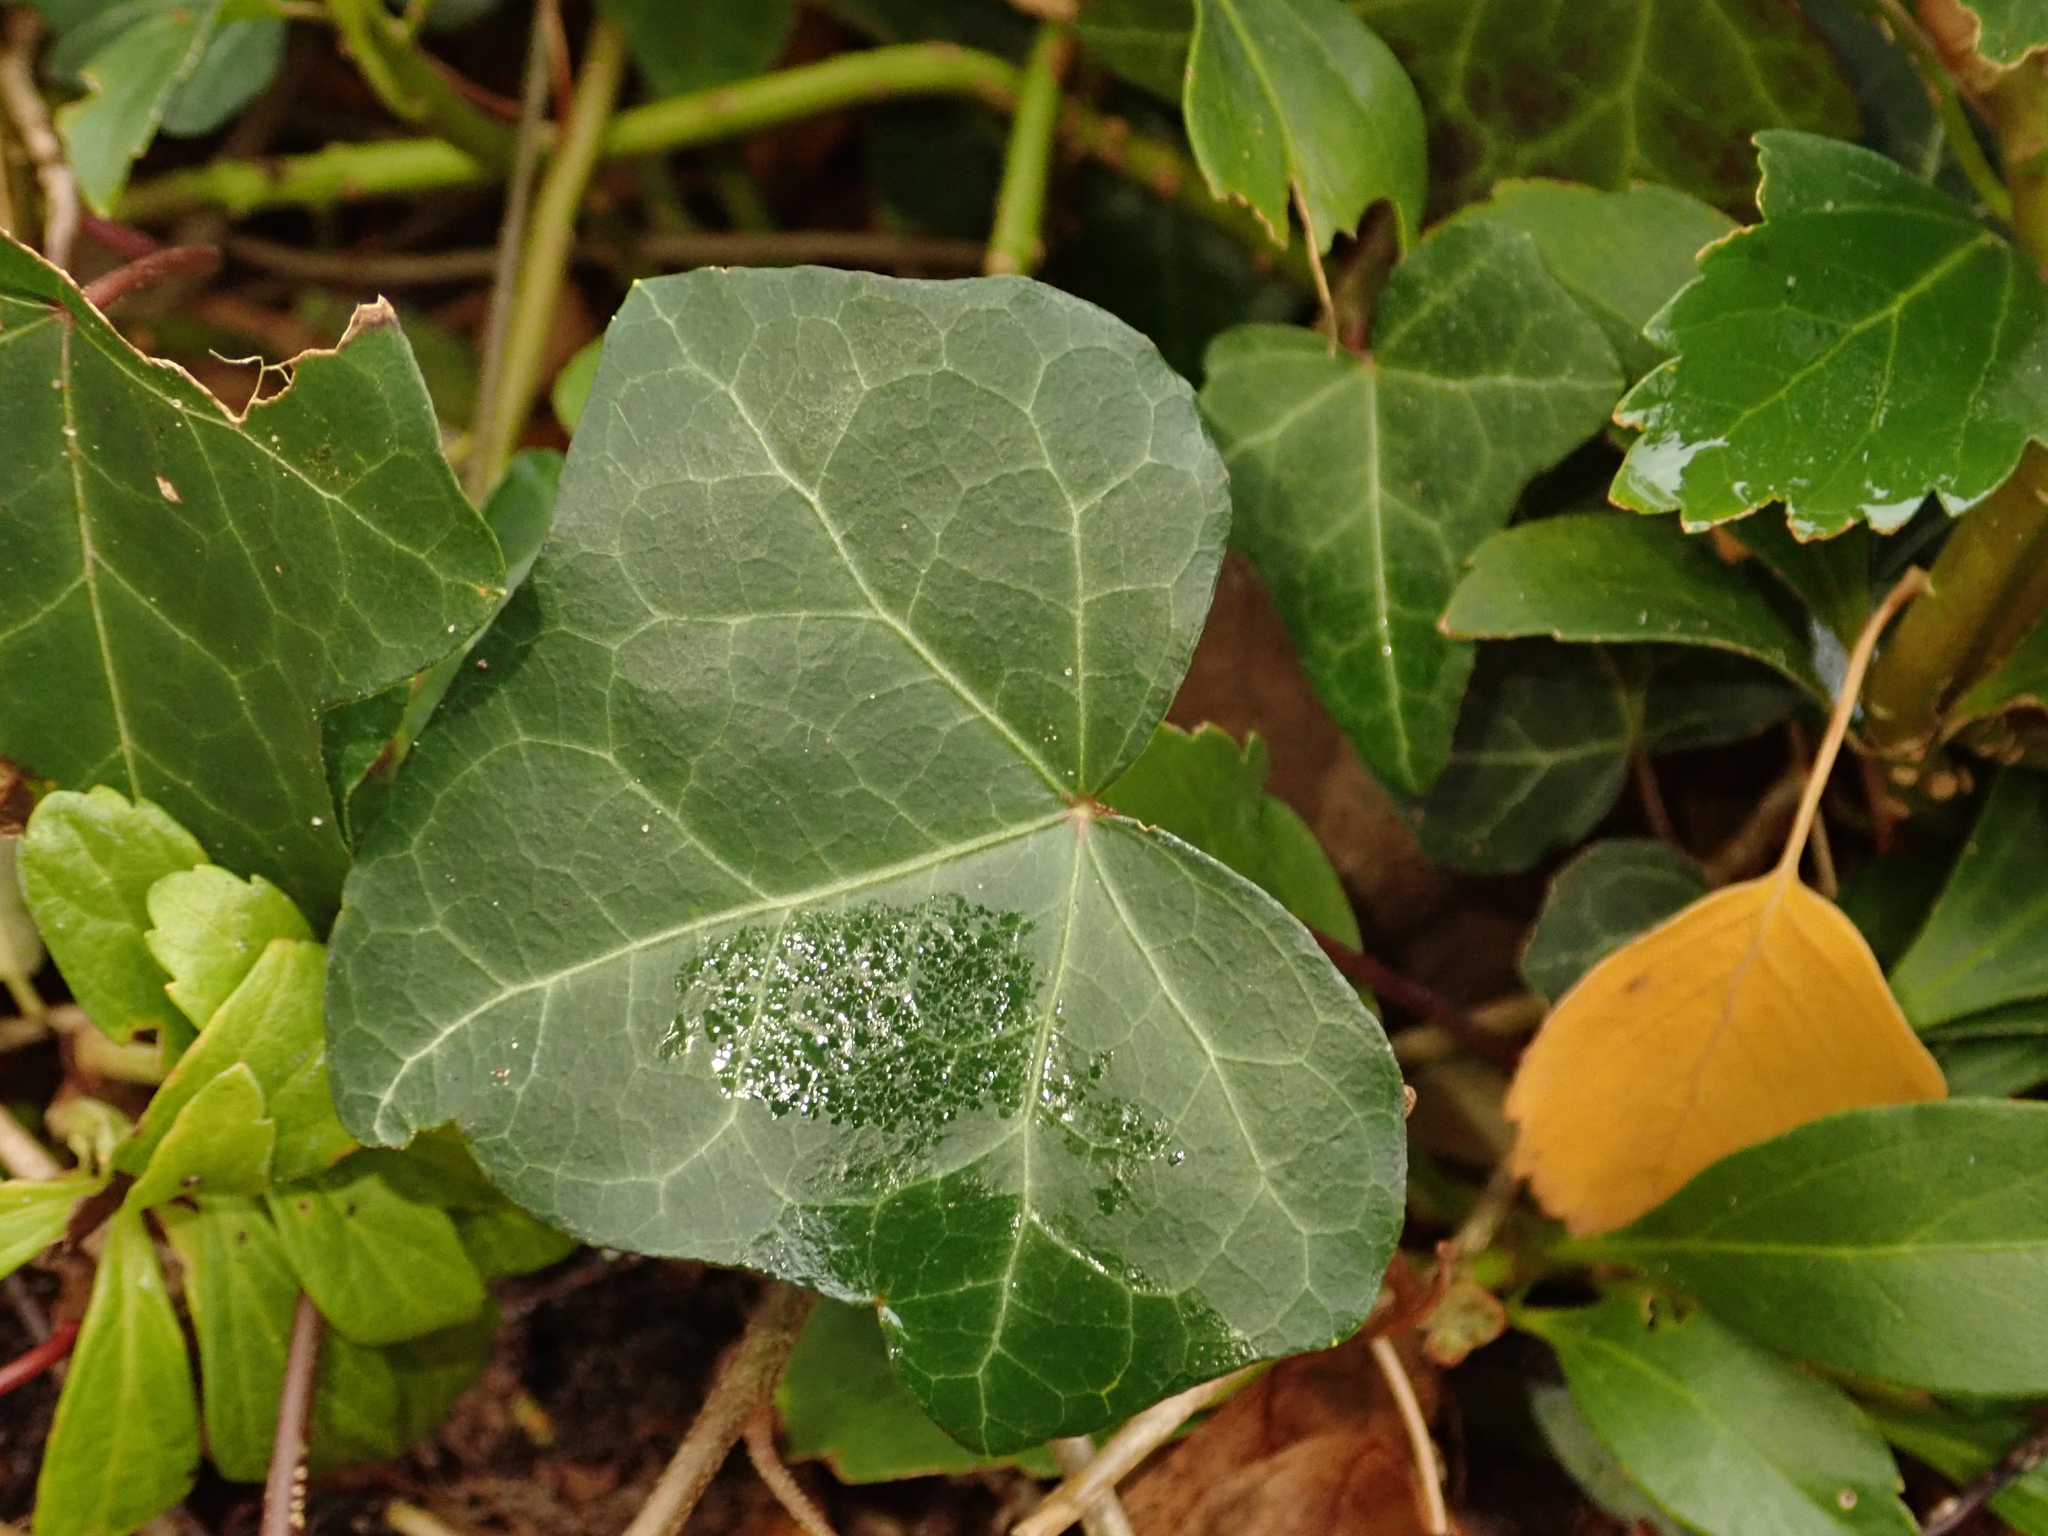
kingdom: Plantae
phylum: Tracheophyta
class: Magnoliopsida
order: Apiales
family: Araliaceae
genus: Hedera
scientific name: Hedera helix
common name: Ivy
